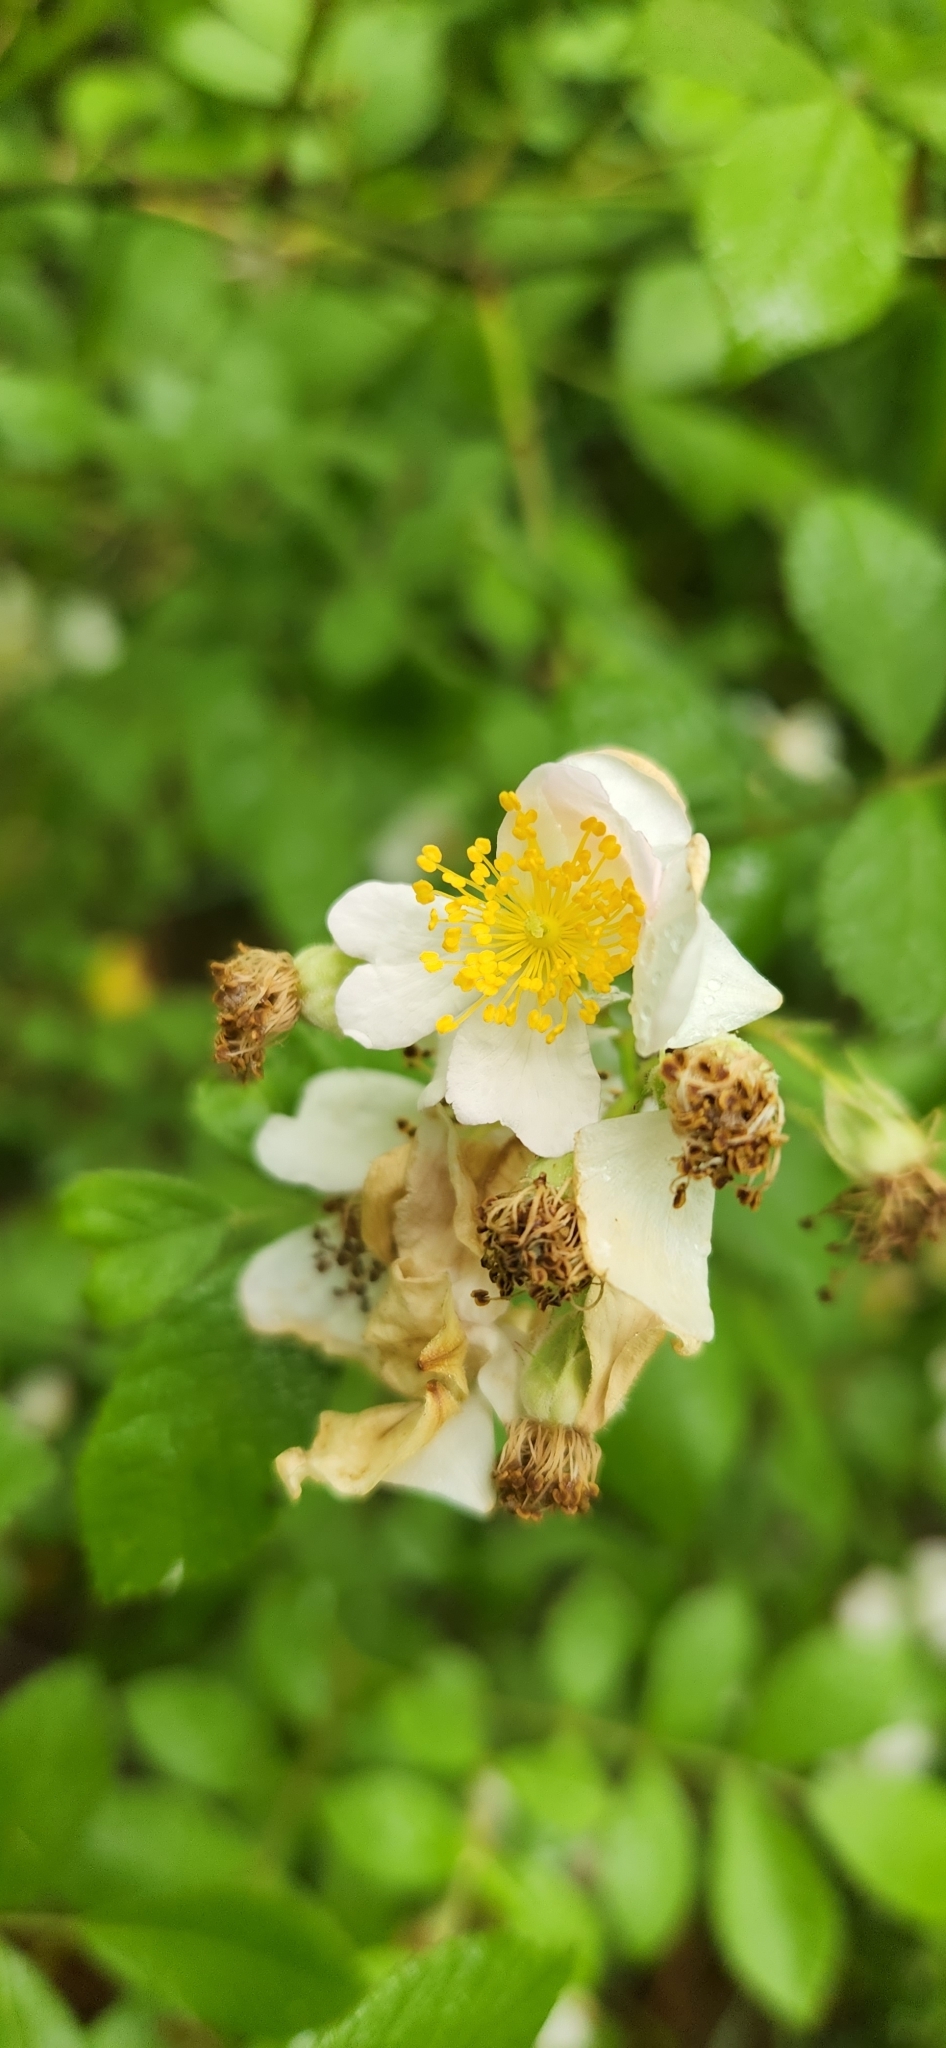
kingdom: Plantae
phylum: Tracheophyta
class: Magnoliopsida
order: Rosales
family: Rosaceae
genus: Rosa
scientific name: Rosa multiflora
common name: Multiflora rose
